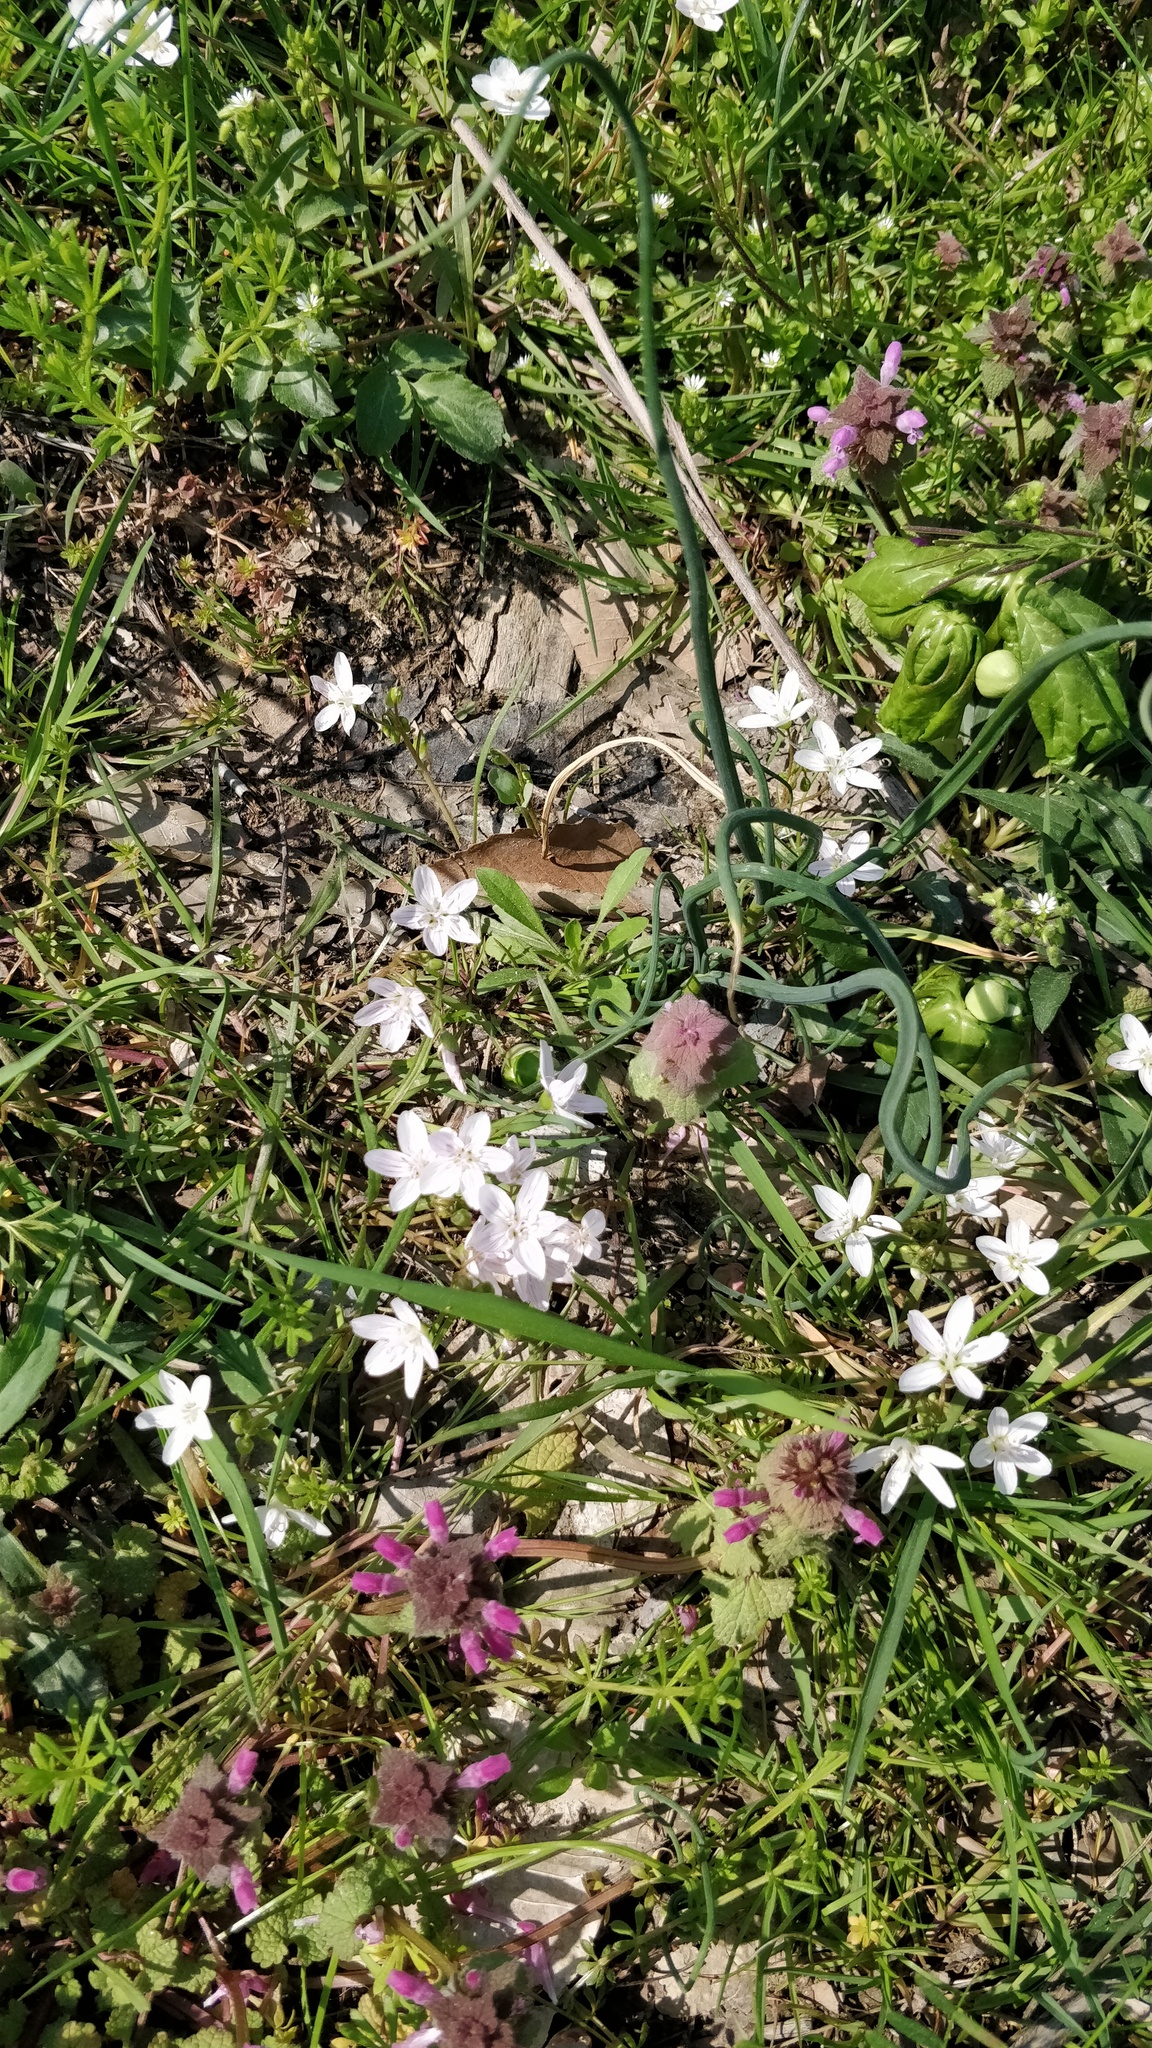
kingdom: Plantae
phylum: Tracheophyta
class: Magnoliopsida
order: Caryophyllales
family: Montiaceae
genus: Claytonia
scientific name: Claytonia virginica
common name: Virginia springbeauty
